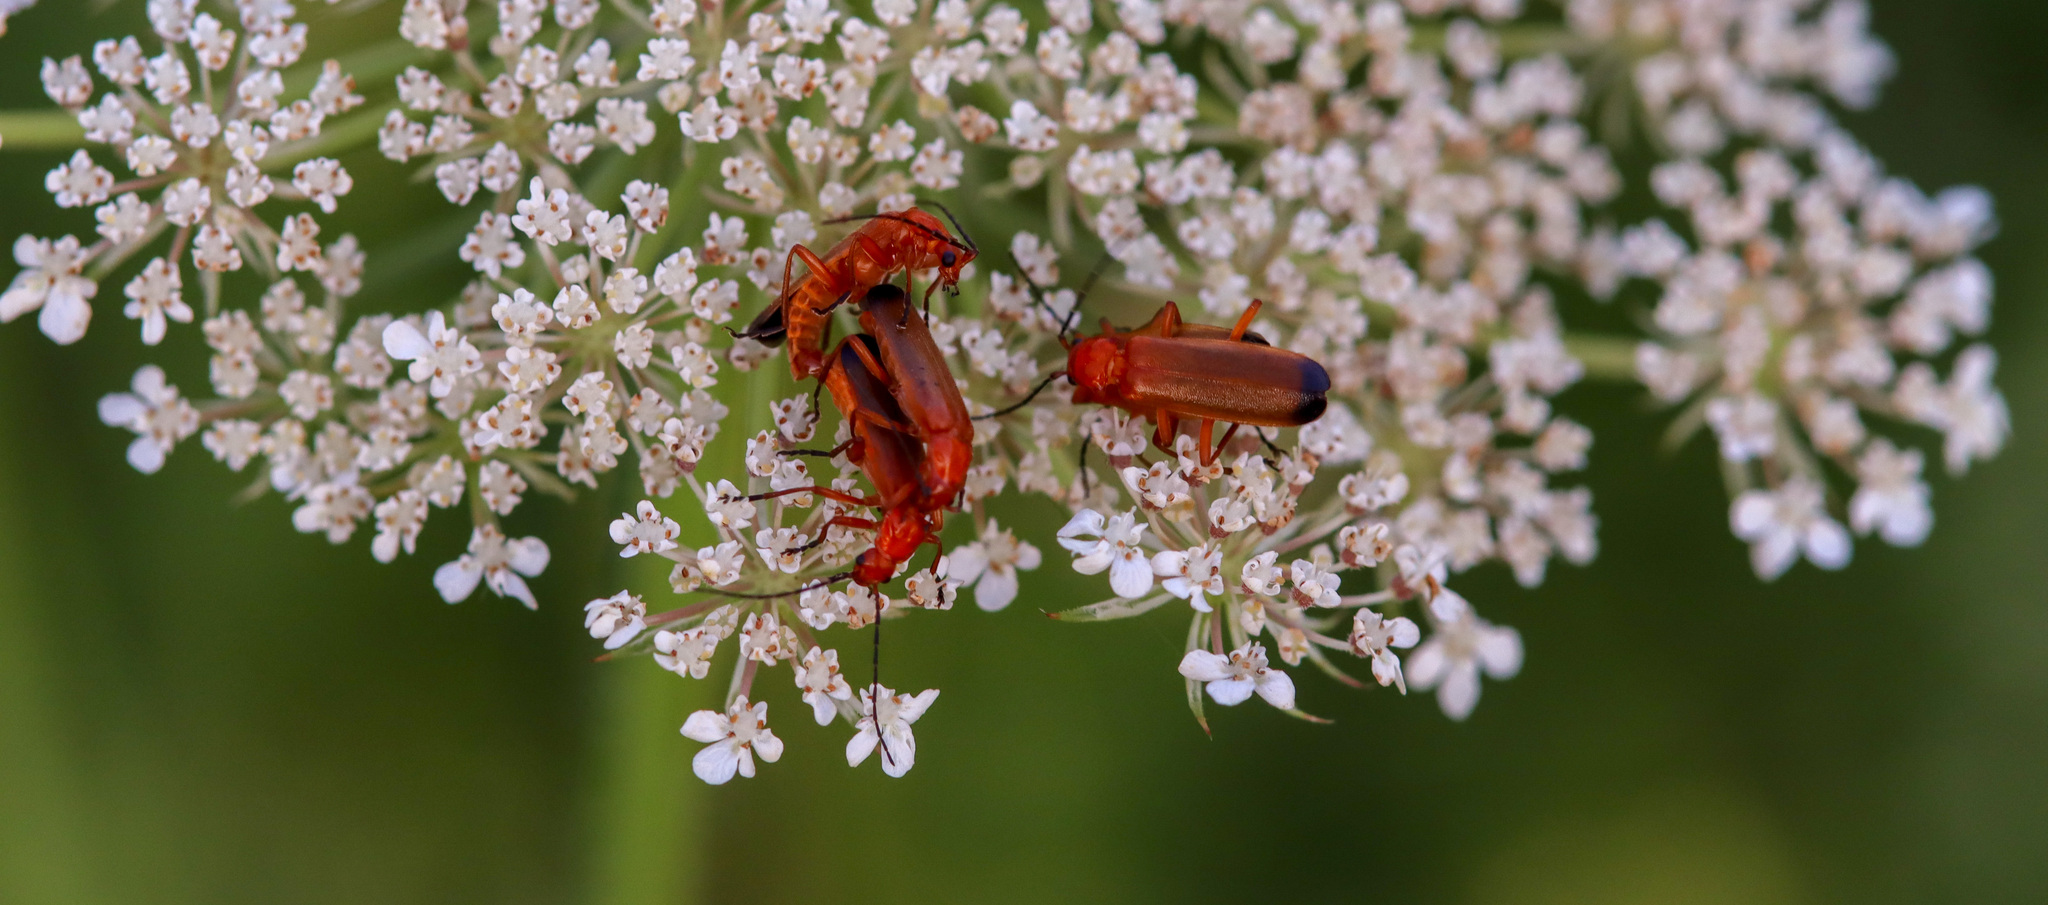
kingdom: Animalia
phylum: Arthropoda
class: Insecta
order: Coleoptera
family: Cantharidae
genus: Rhagonycha
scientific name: Rhagonycha fulva
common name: Common red soldier beetle
